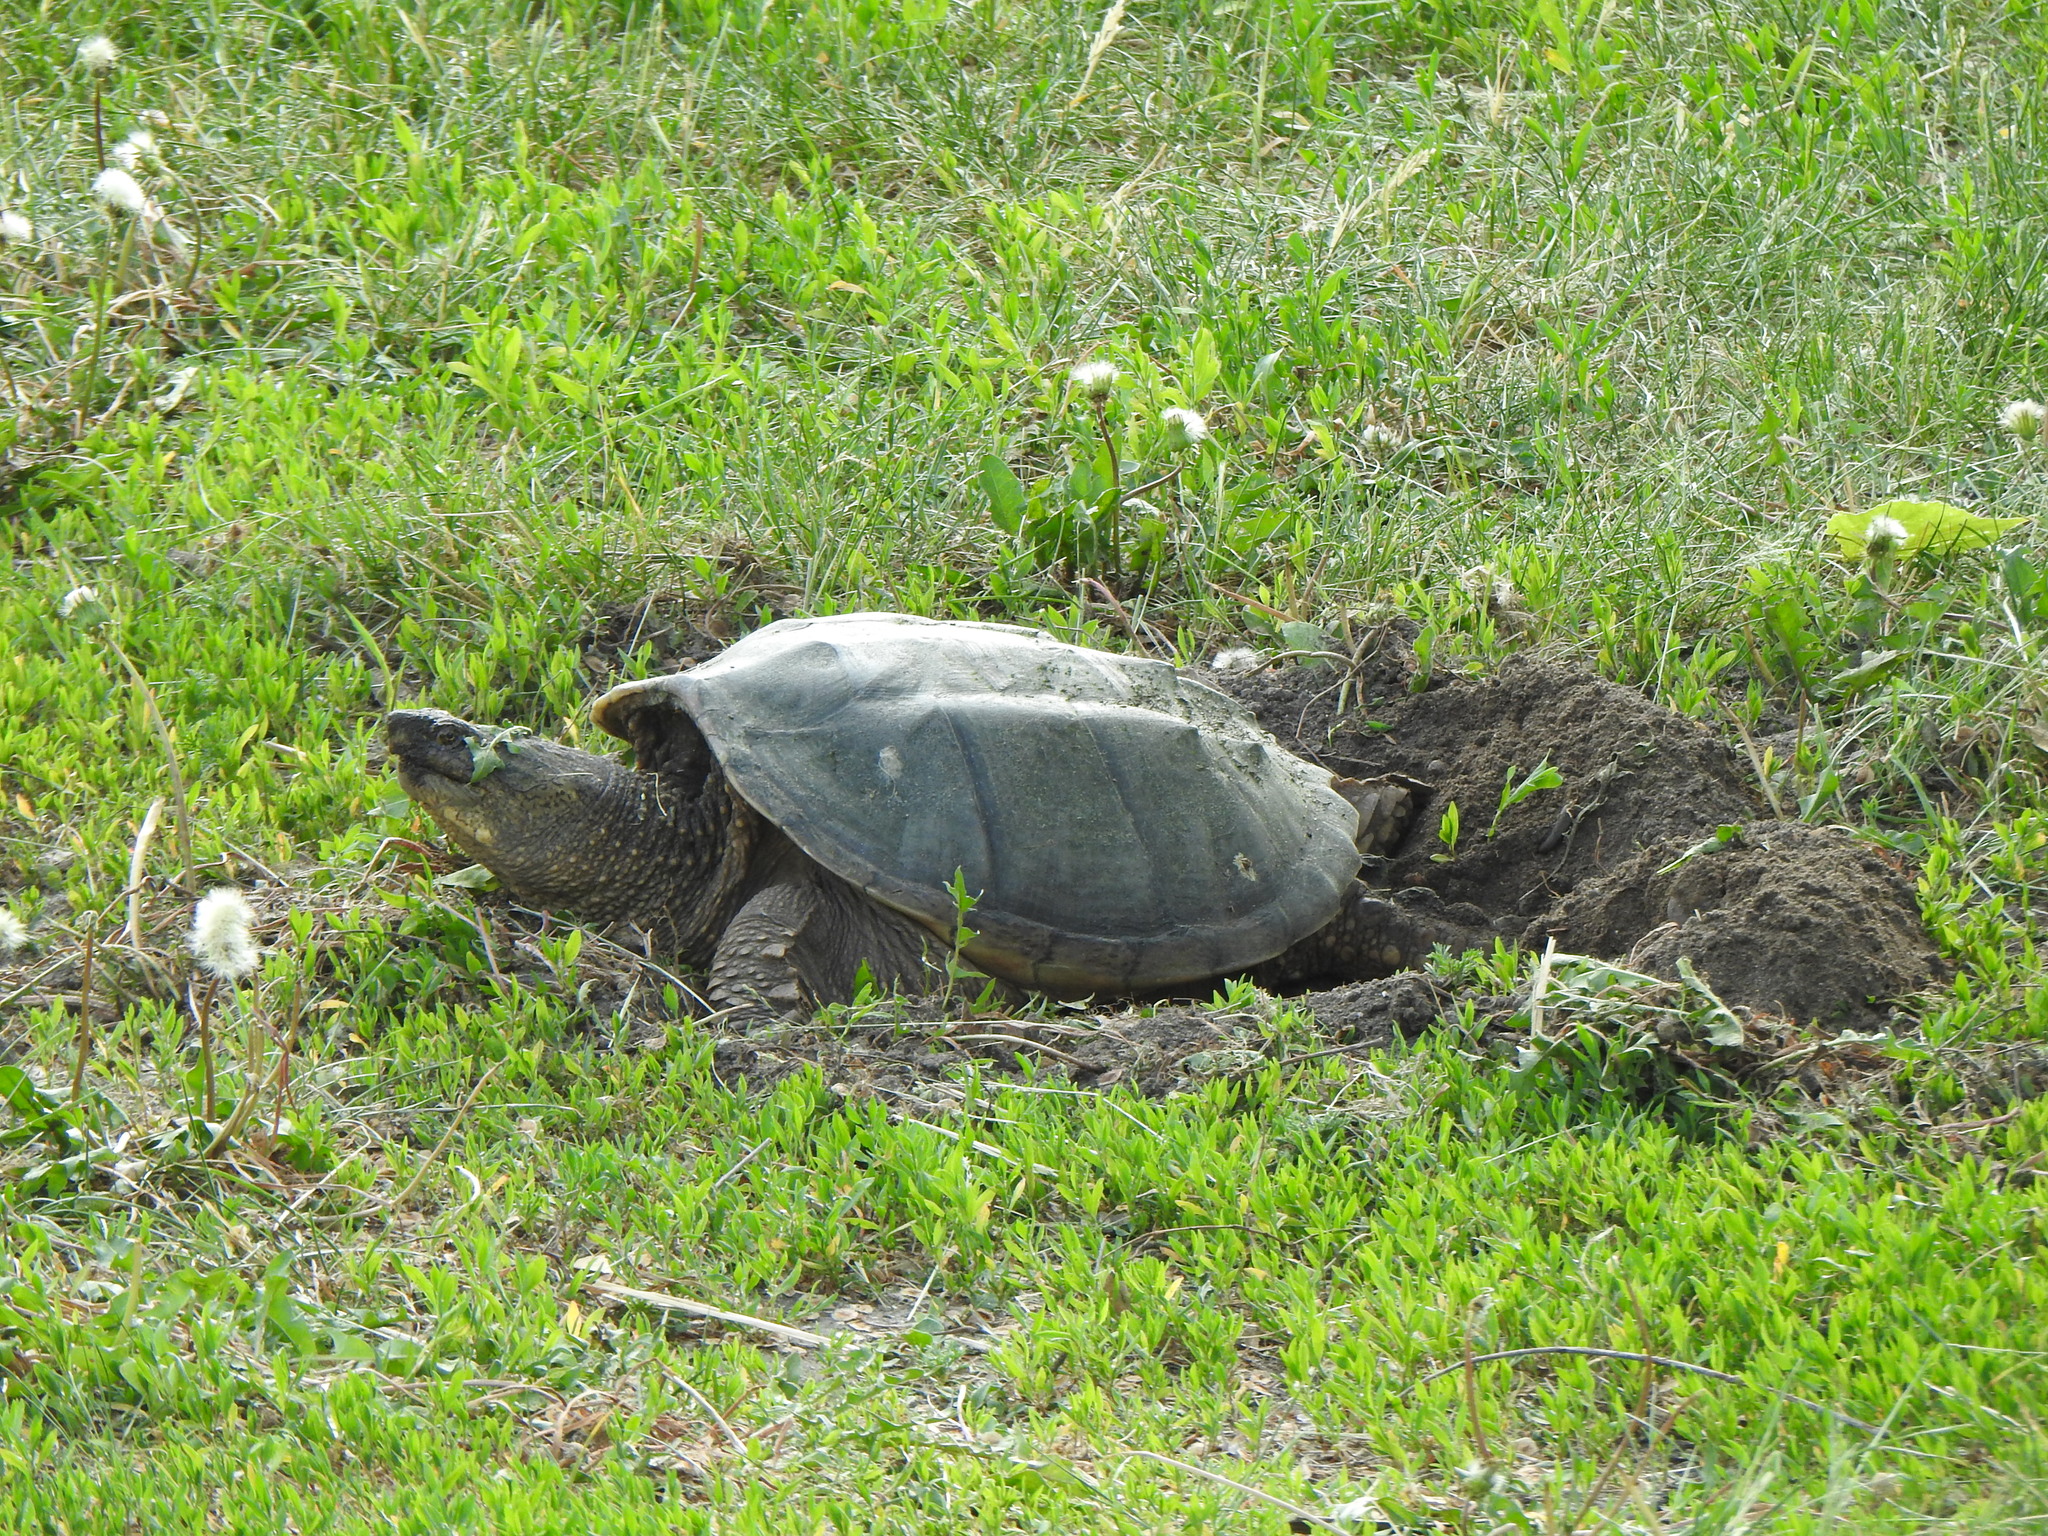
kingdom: Animalia
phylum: Chordata
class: Testudines
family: Chelydridae
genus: Chelydra
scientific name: Chelydra serpentina
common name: Common snapping turtle
